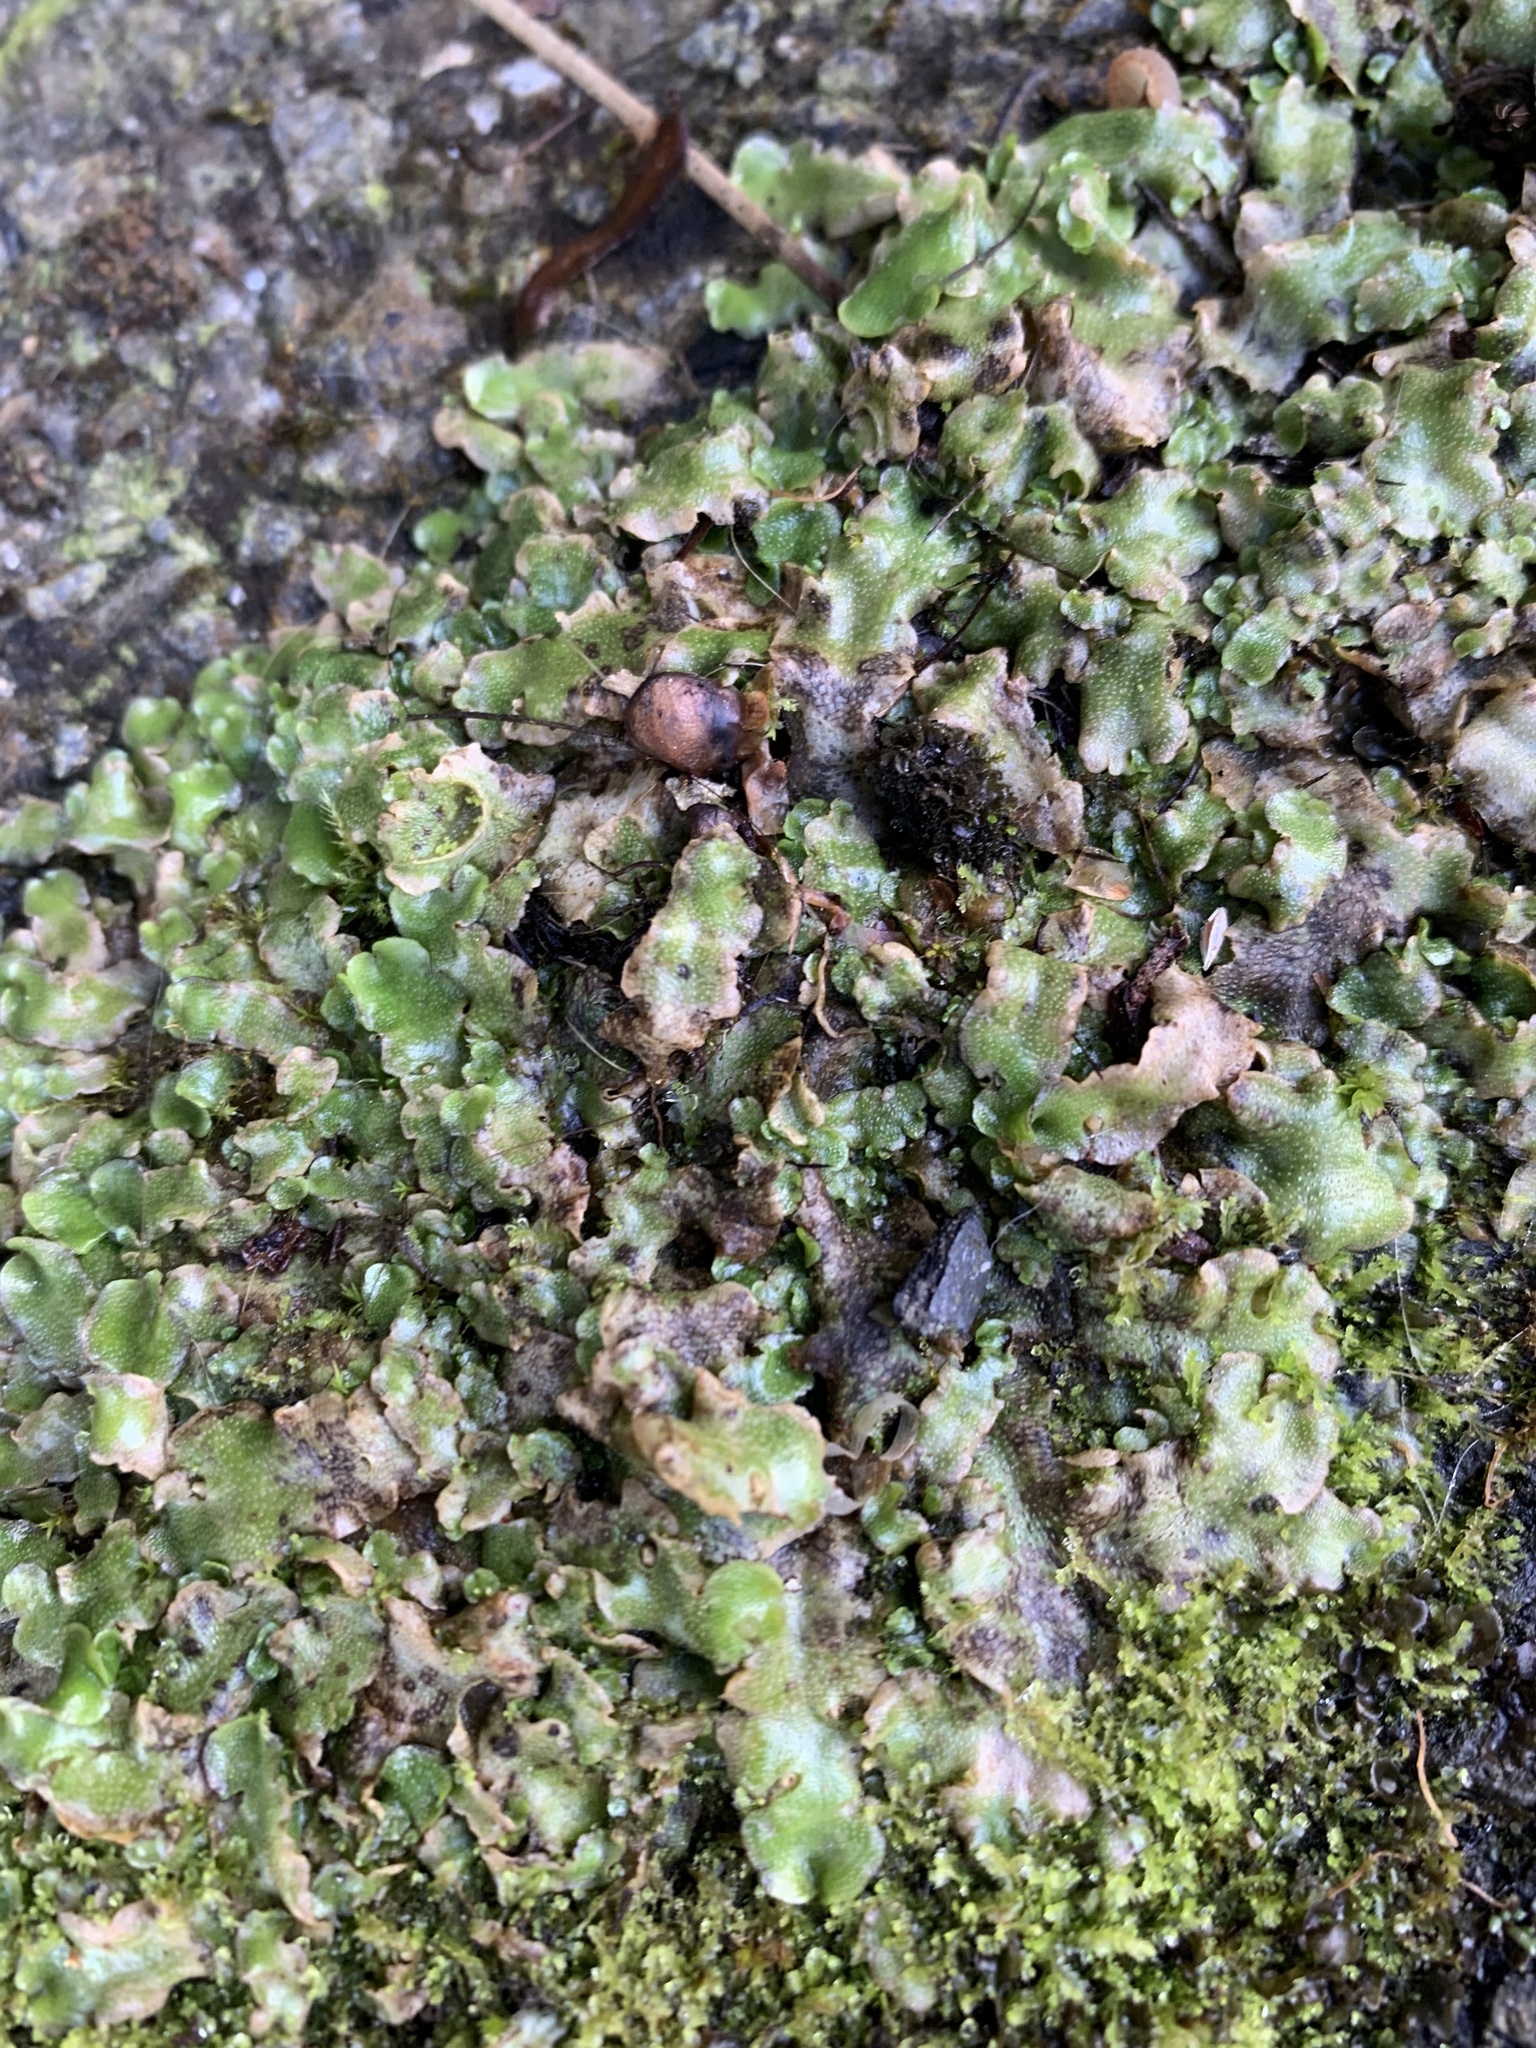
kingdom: Plantae
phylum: Marchantiophyta
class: Marchantiopsida
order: Lunulariales
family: Lunulariaceae
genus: Lunularia
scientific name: Lunularia cruciata
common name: Crescent-cup liverwort
